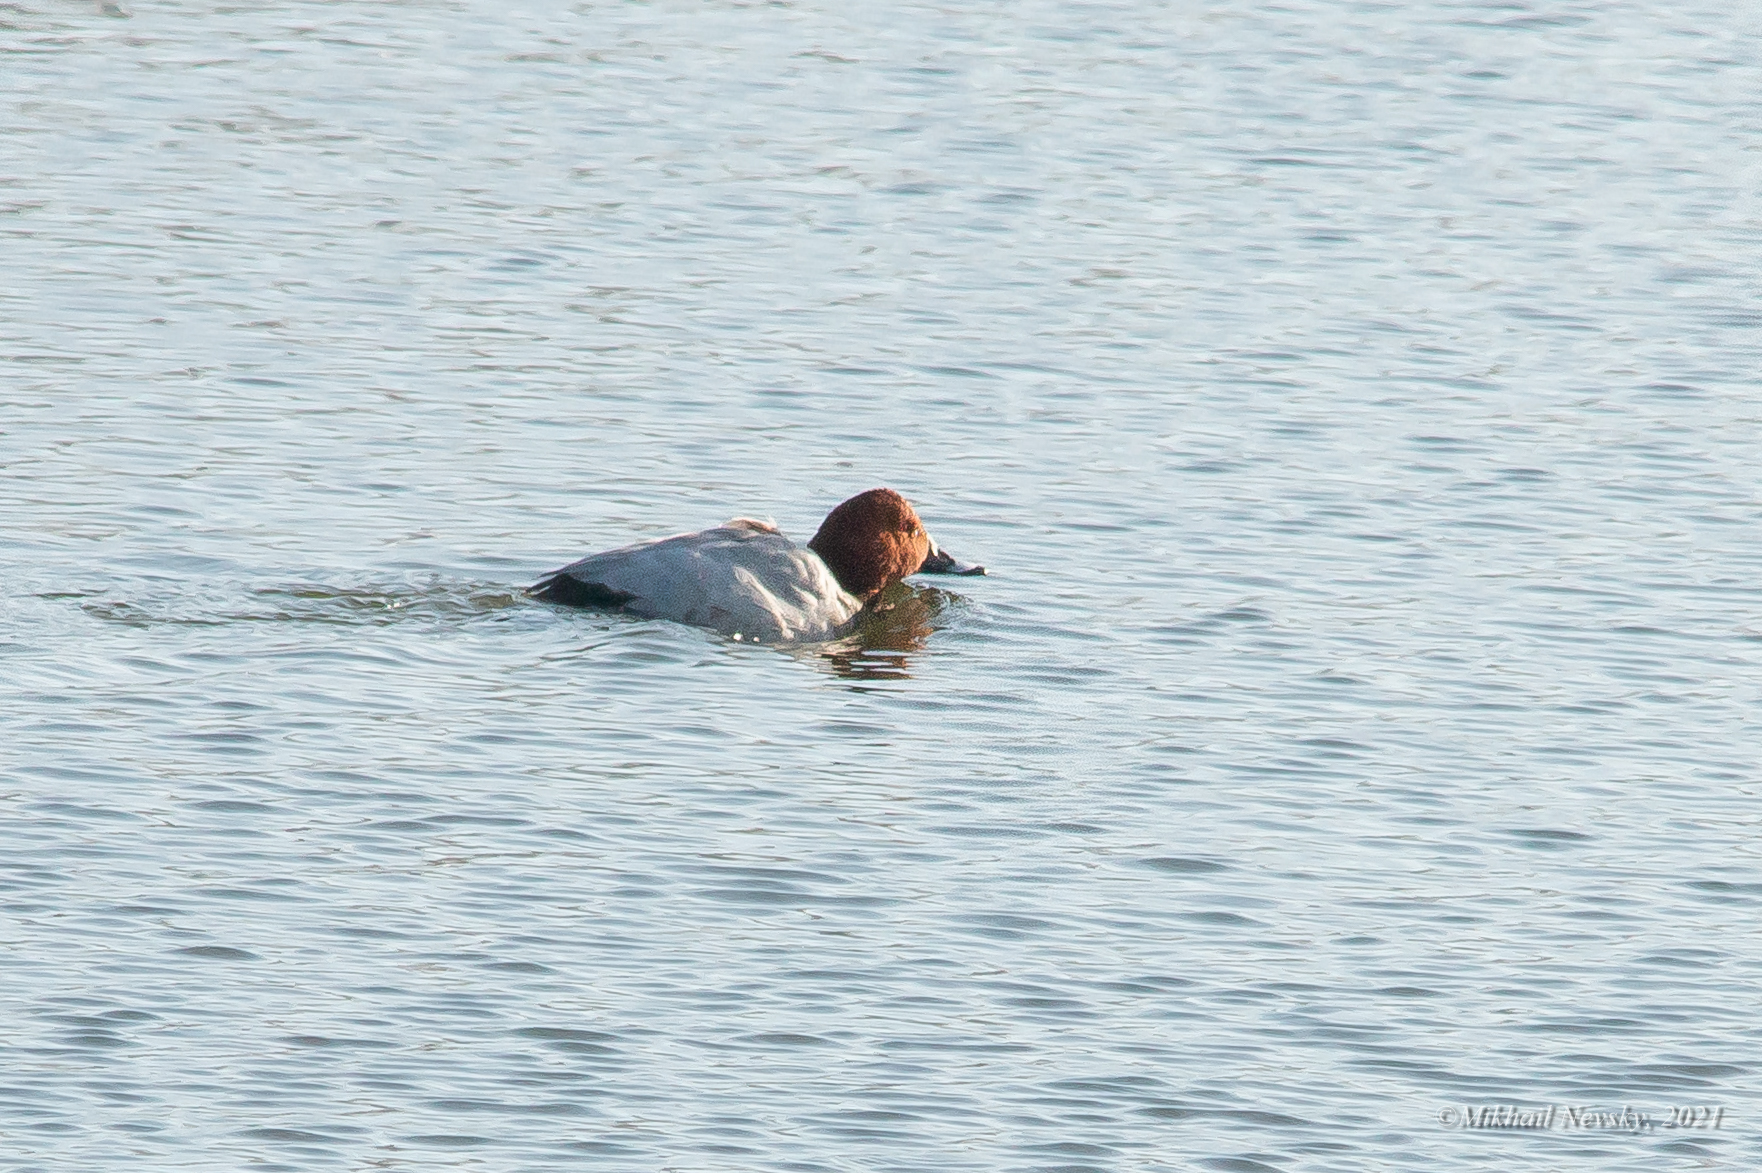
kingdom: Animalia
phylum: Chordata
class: Aves
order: Anseriformes
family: Anatidae
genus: Aythya
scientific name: Aythya ferina
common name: Common pochard
